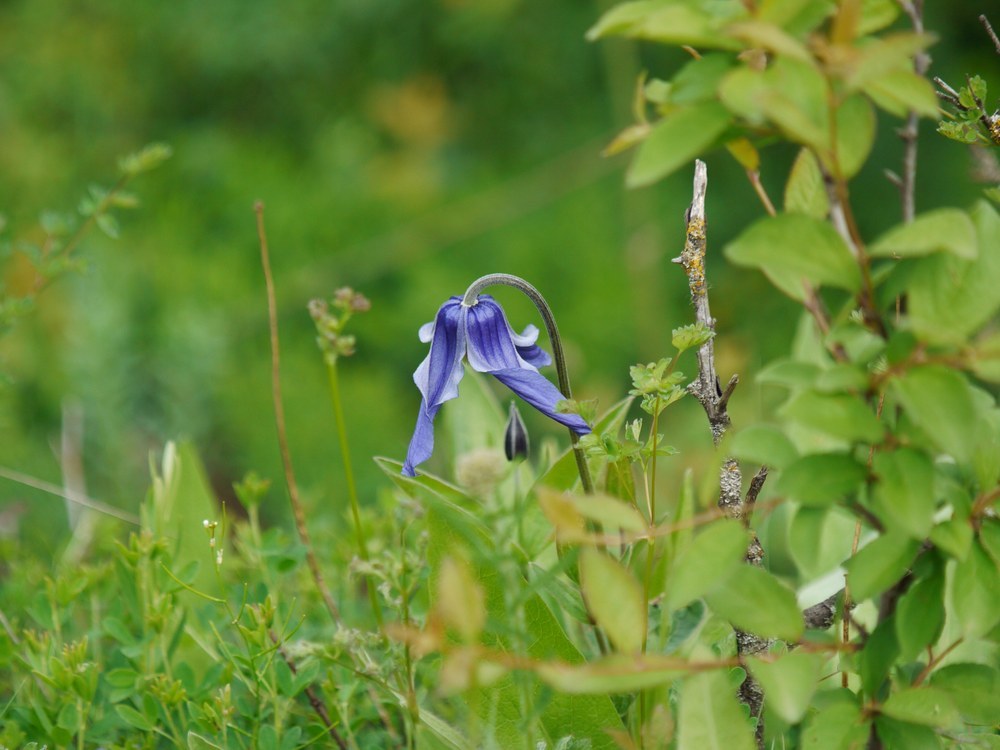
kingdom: Plantae
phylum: Tracheophyta
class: Magnoliopsida
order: Ranunculales
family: Ranunculaceae
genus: Clematis
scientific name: Clematis integrifolia
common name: Solitary clematis
